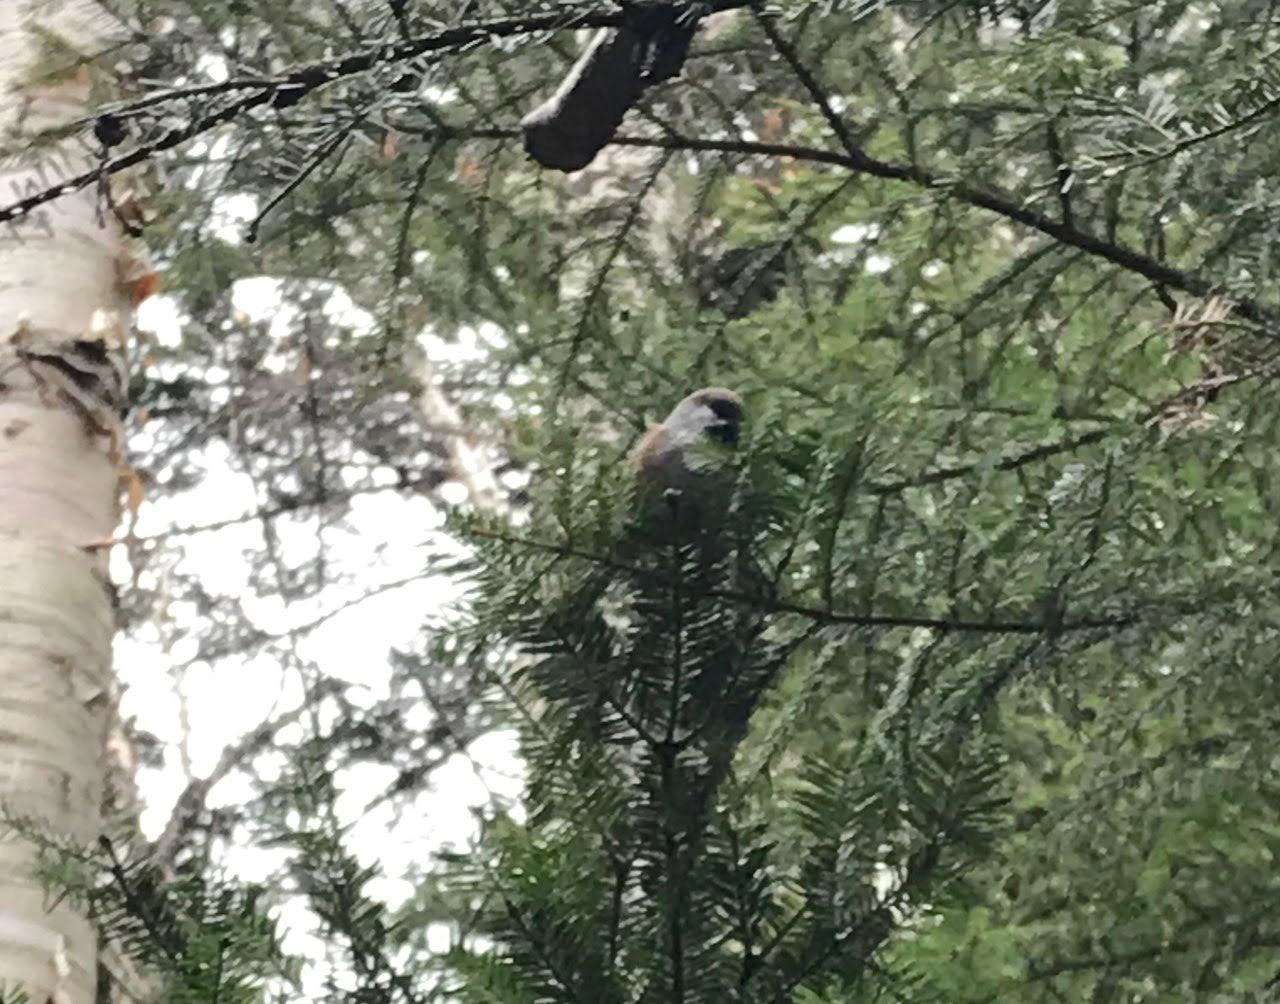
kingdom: Animalia
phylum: Chordata
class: Aves
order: Passeriformes
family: Paridae
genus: Poecile
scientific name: Poecile hudsonicus
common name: Boreal chickadee
